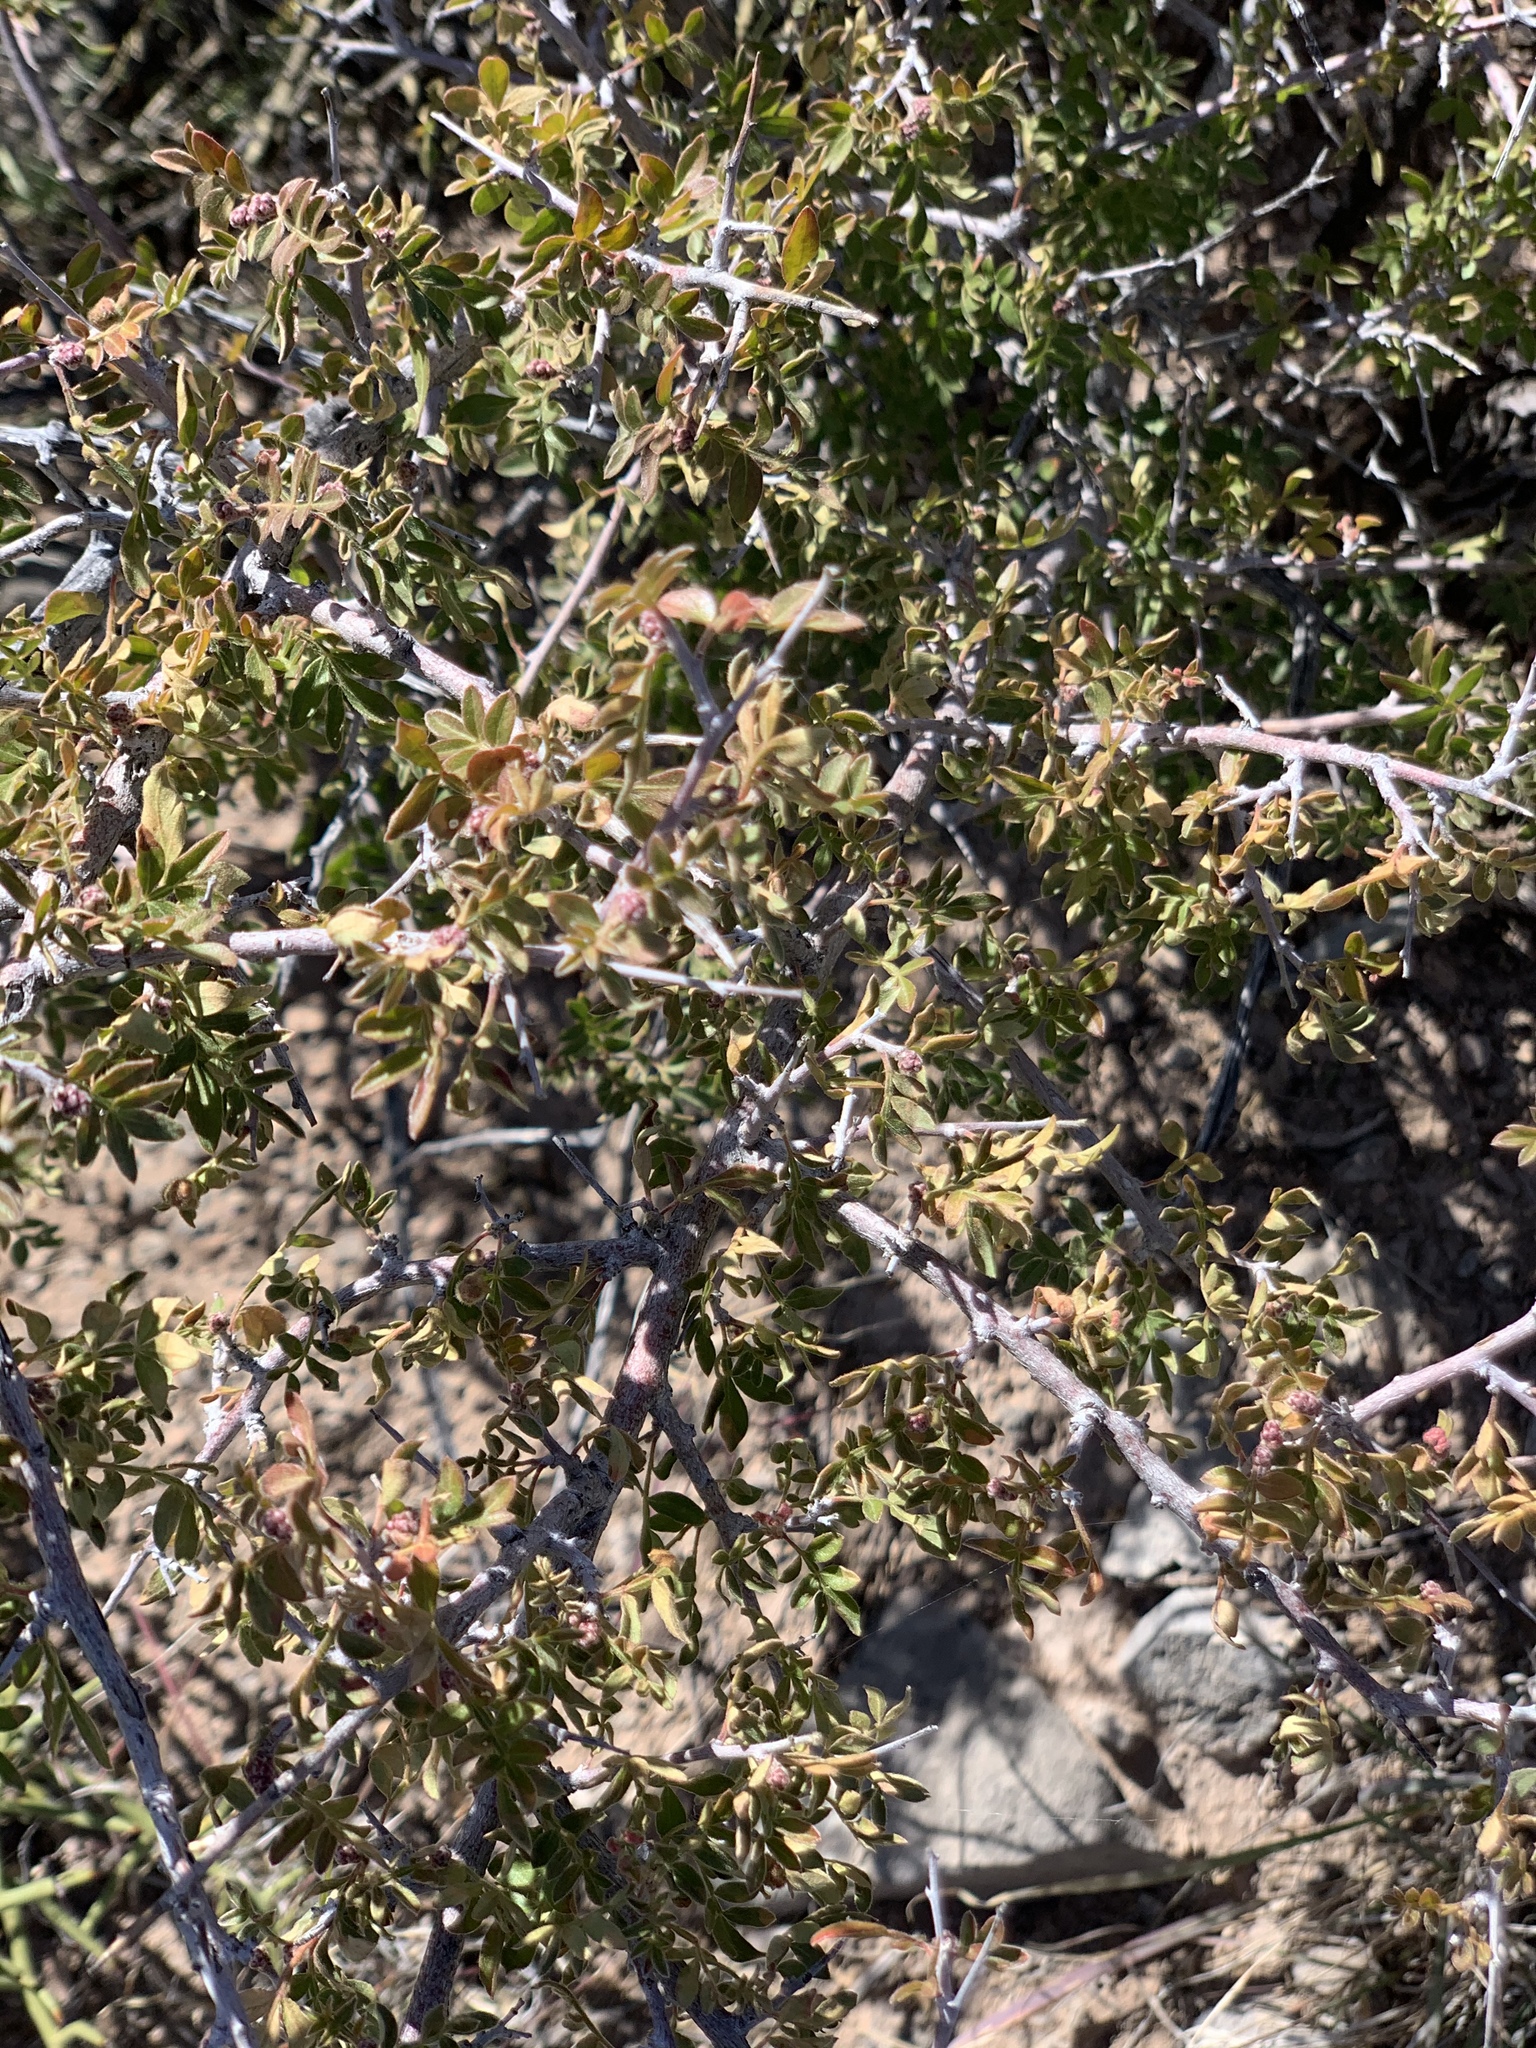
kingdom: Plantae
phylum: Tracheophyta
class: Magnoliopsida
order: Sapindales
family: Anacardiaceae
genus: Rhus
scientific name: Rhus microphylla
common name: Desert sumac
